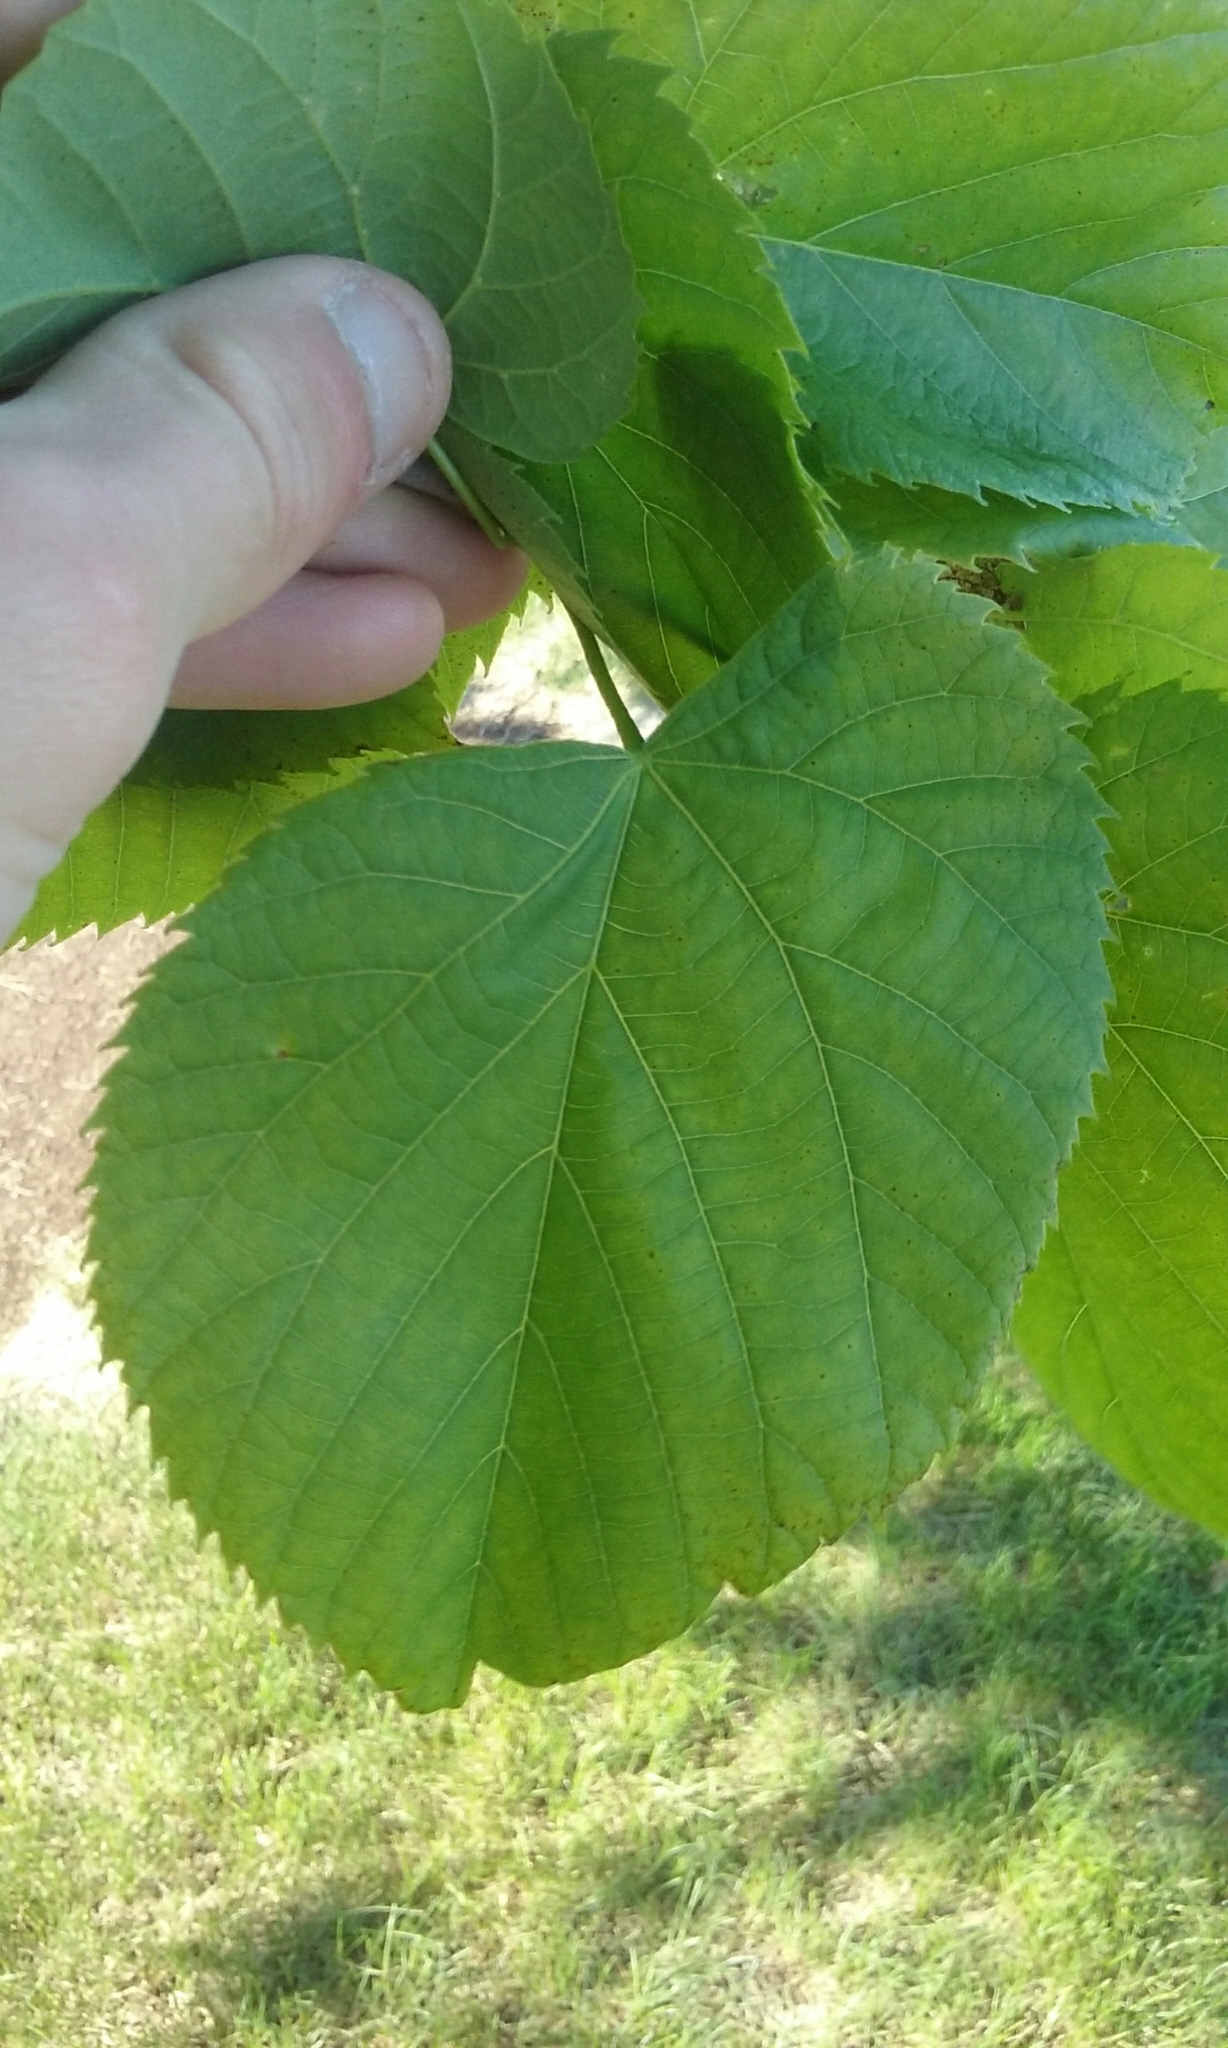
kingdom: Plantae
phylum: Tracheophyta
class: Magnoliopsida
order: Malvales
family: Malvaceae
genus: Tilia
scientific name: Tilia americana
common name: Basswood
